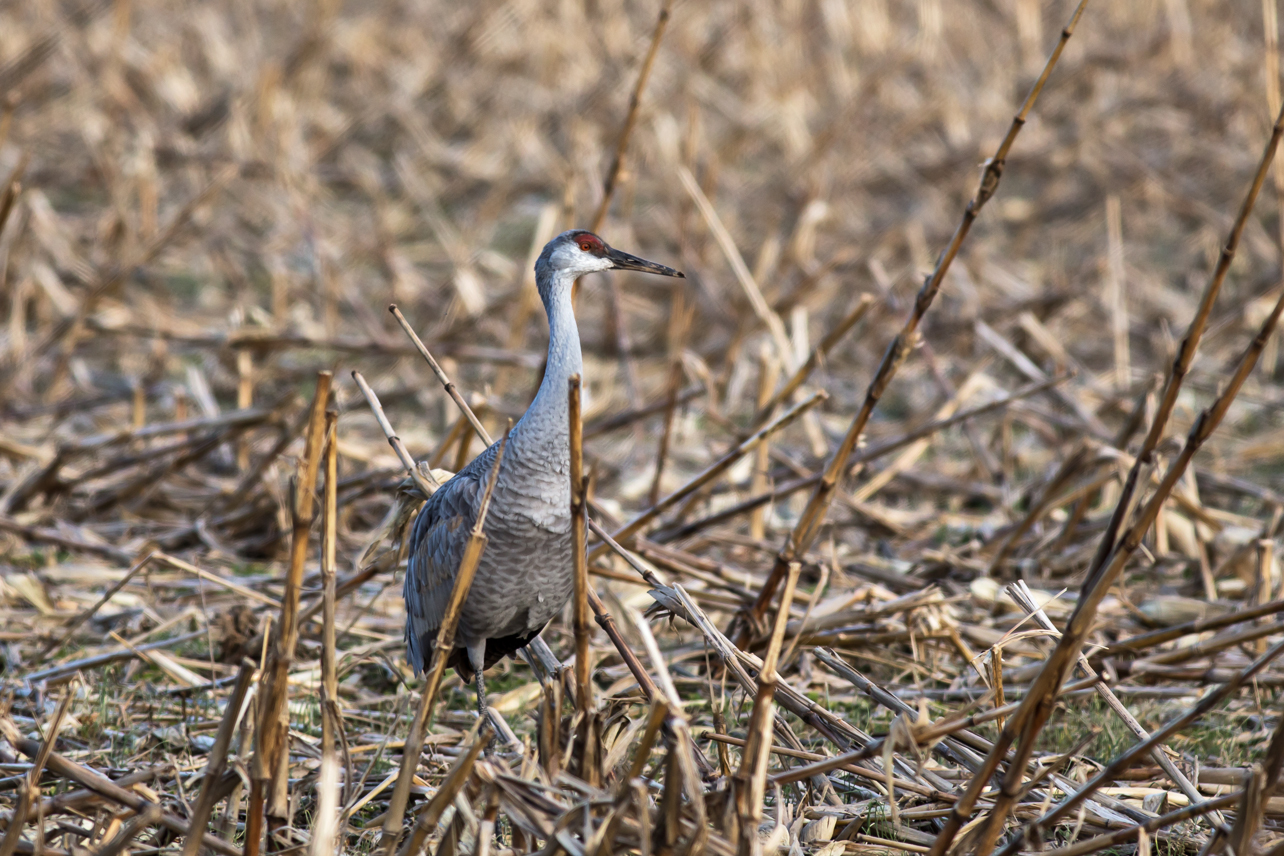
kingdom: Animalia
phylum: Chordata
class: Aves
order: Gruiformes
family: Gruidae
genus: Grus
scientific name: Grus canadensis
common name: Sandhill crane
